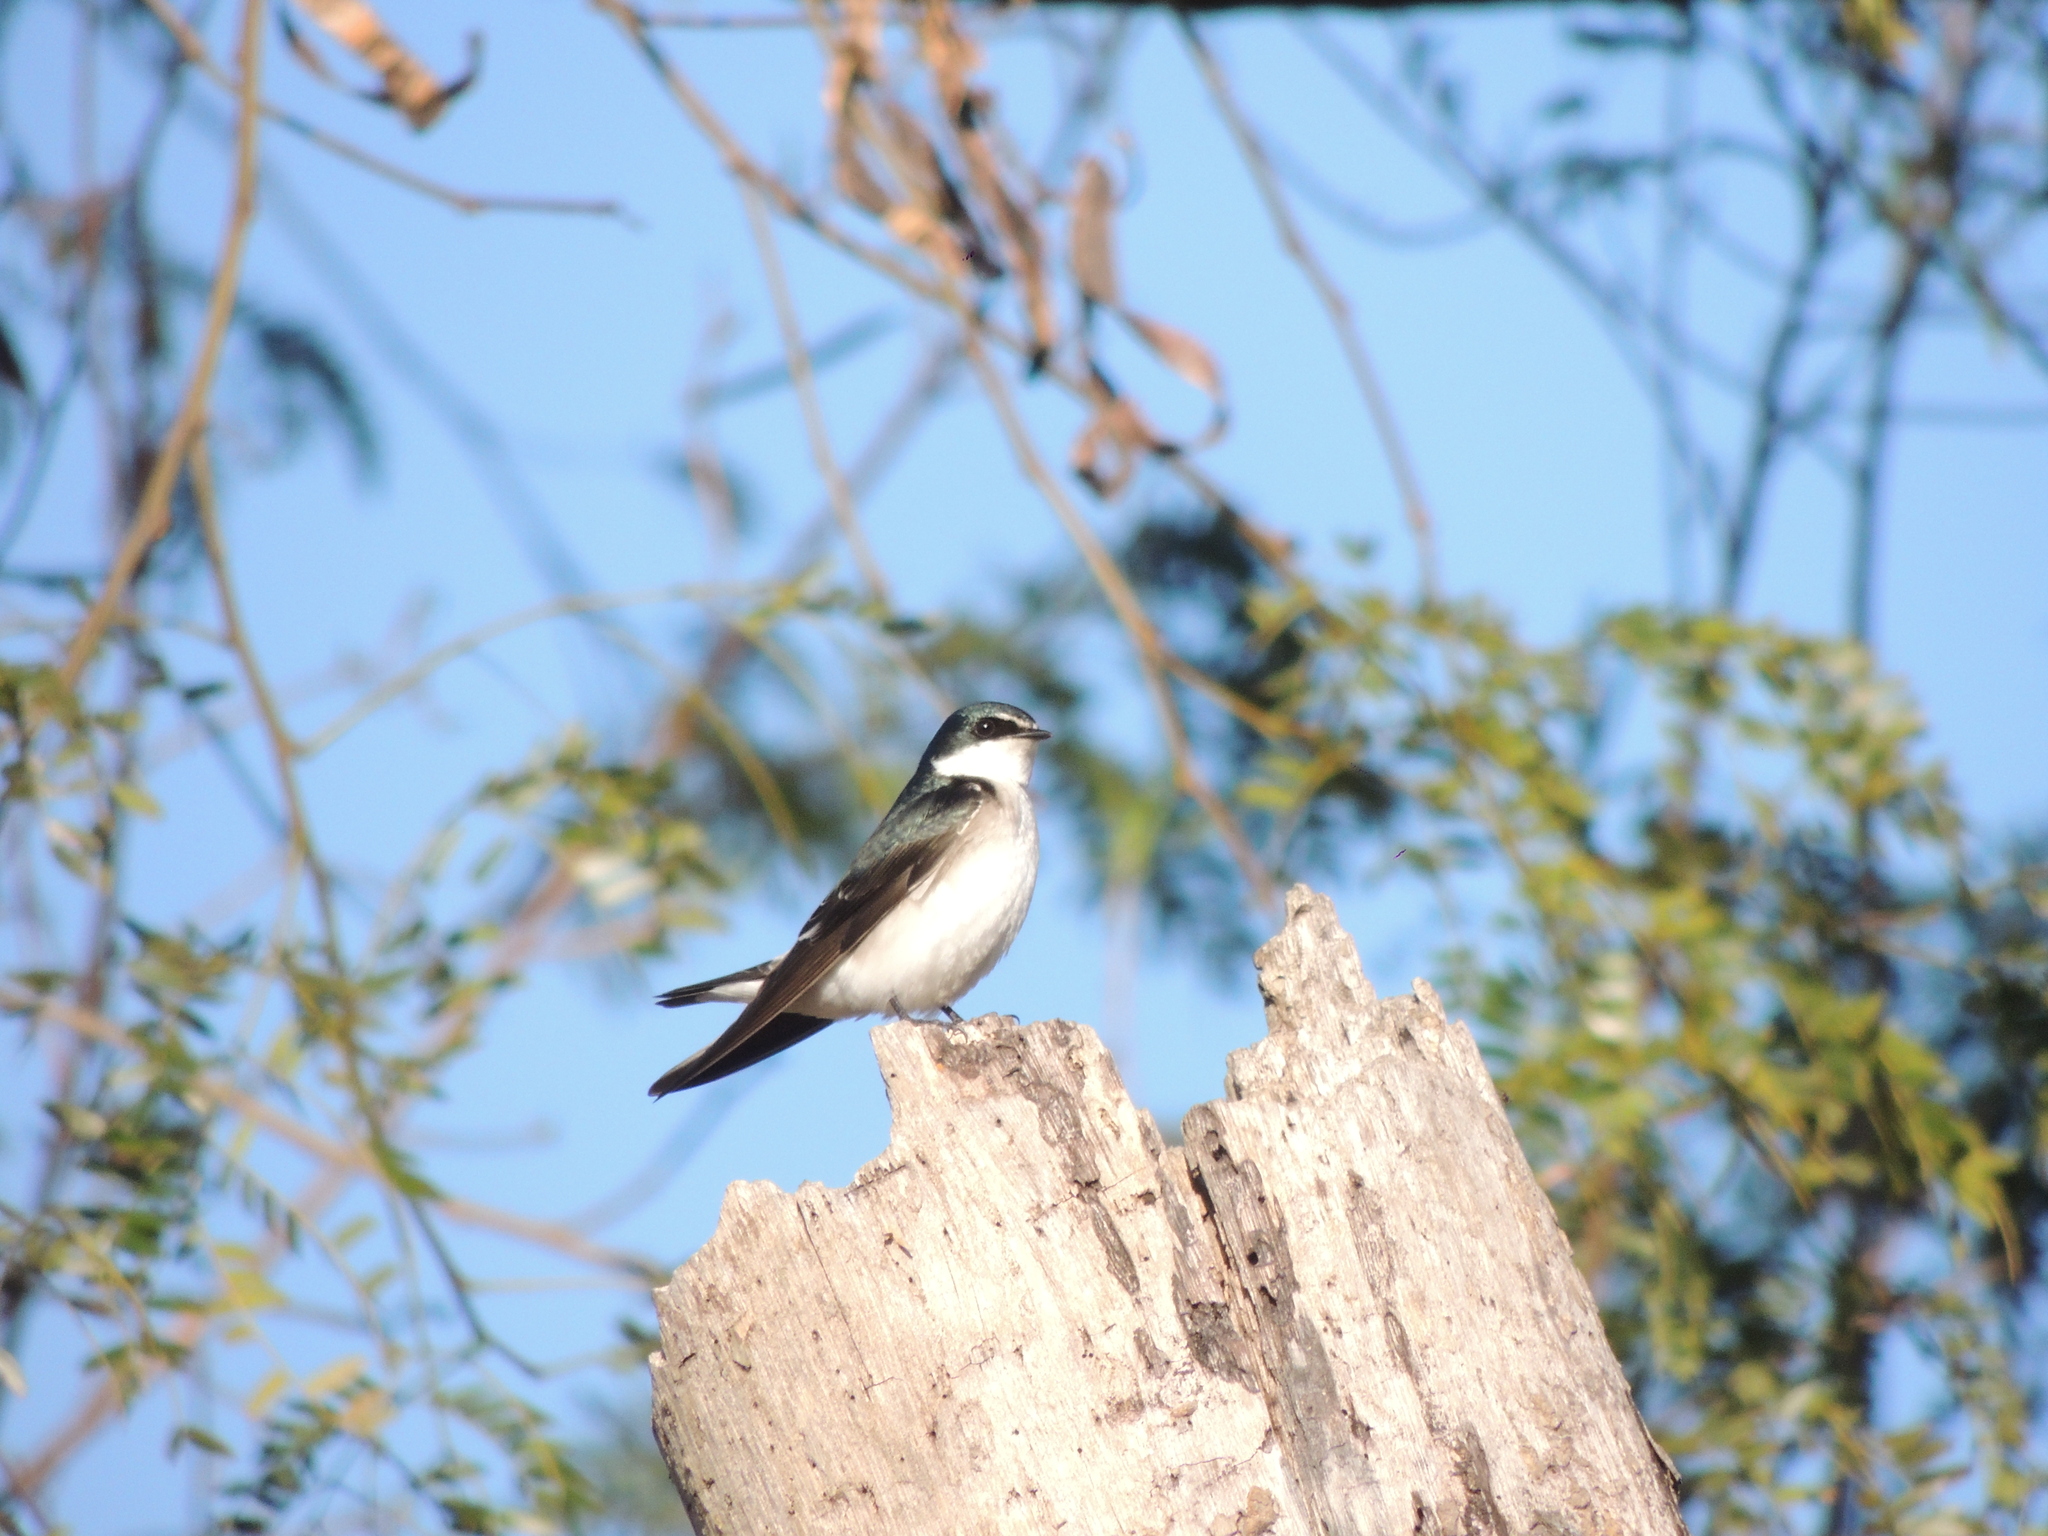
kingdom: Animalia
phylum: Chordata
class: Aves
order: Passeriformes
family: Hirundinidae
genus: Tachycineta
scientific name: Tachycineta leucorrhoa
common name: White-rumped swallow
